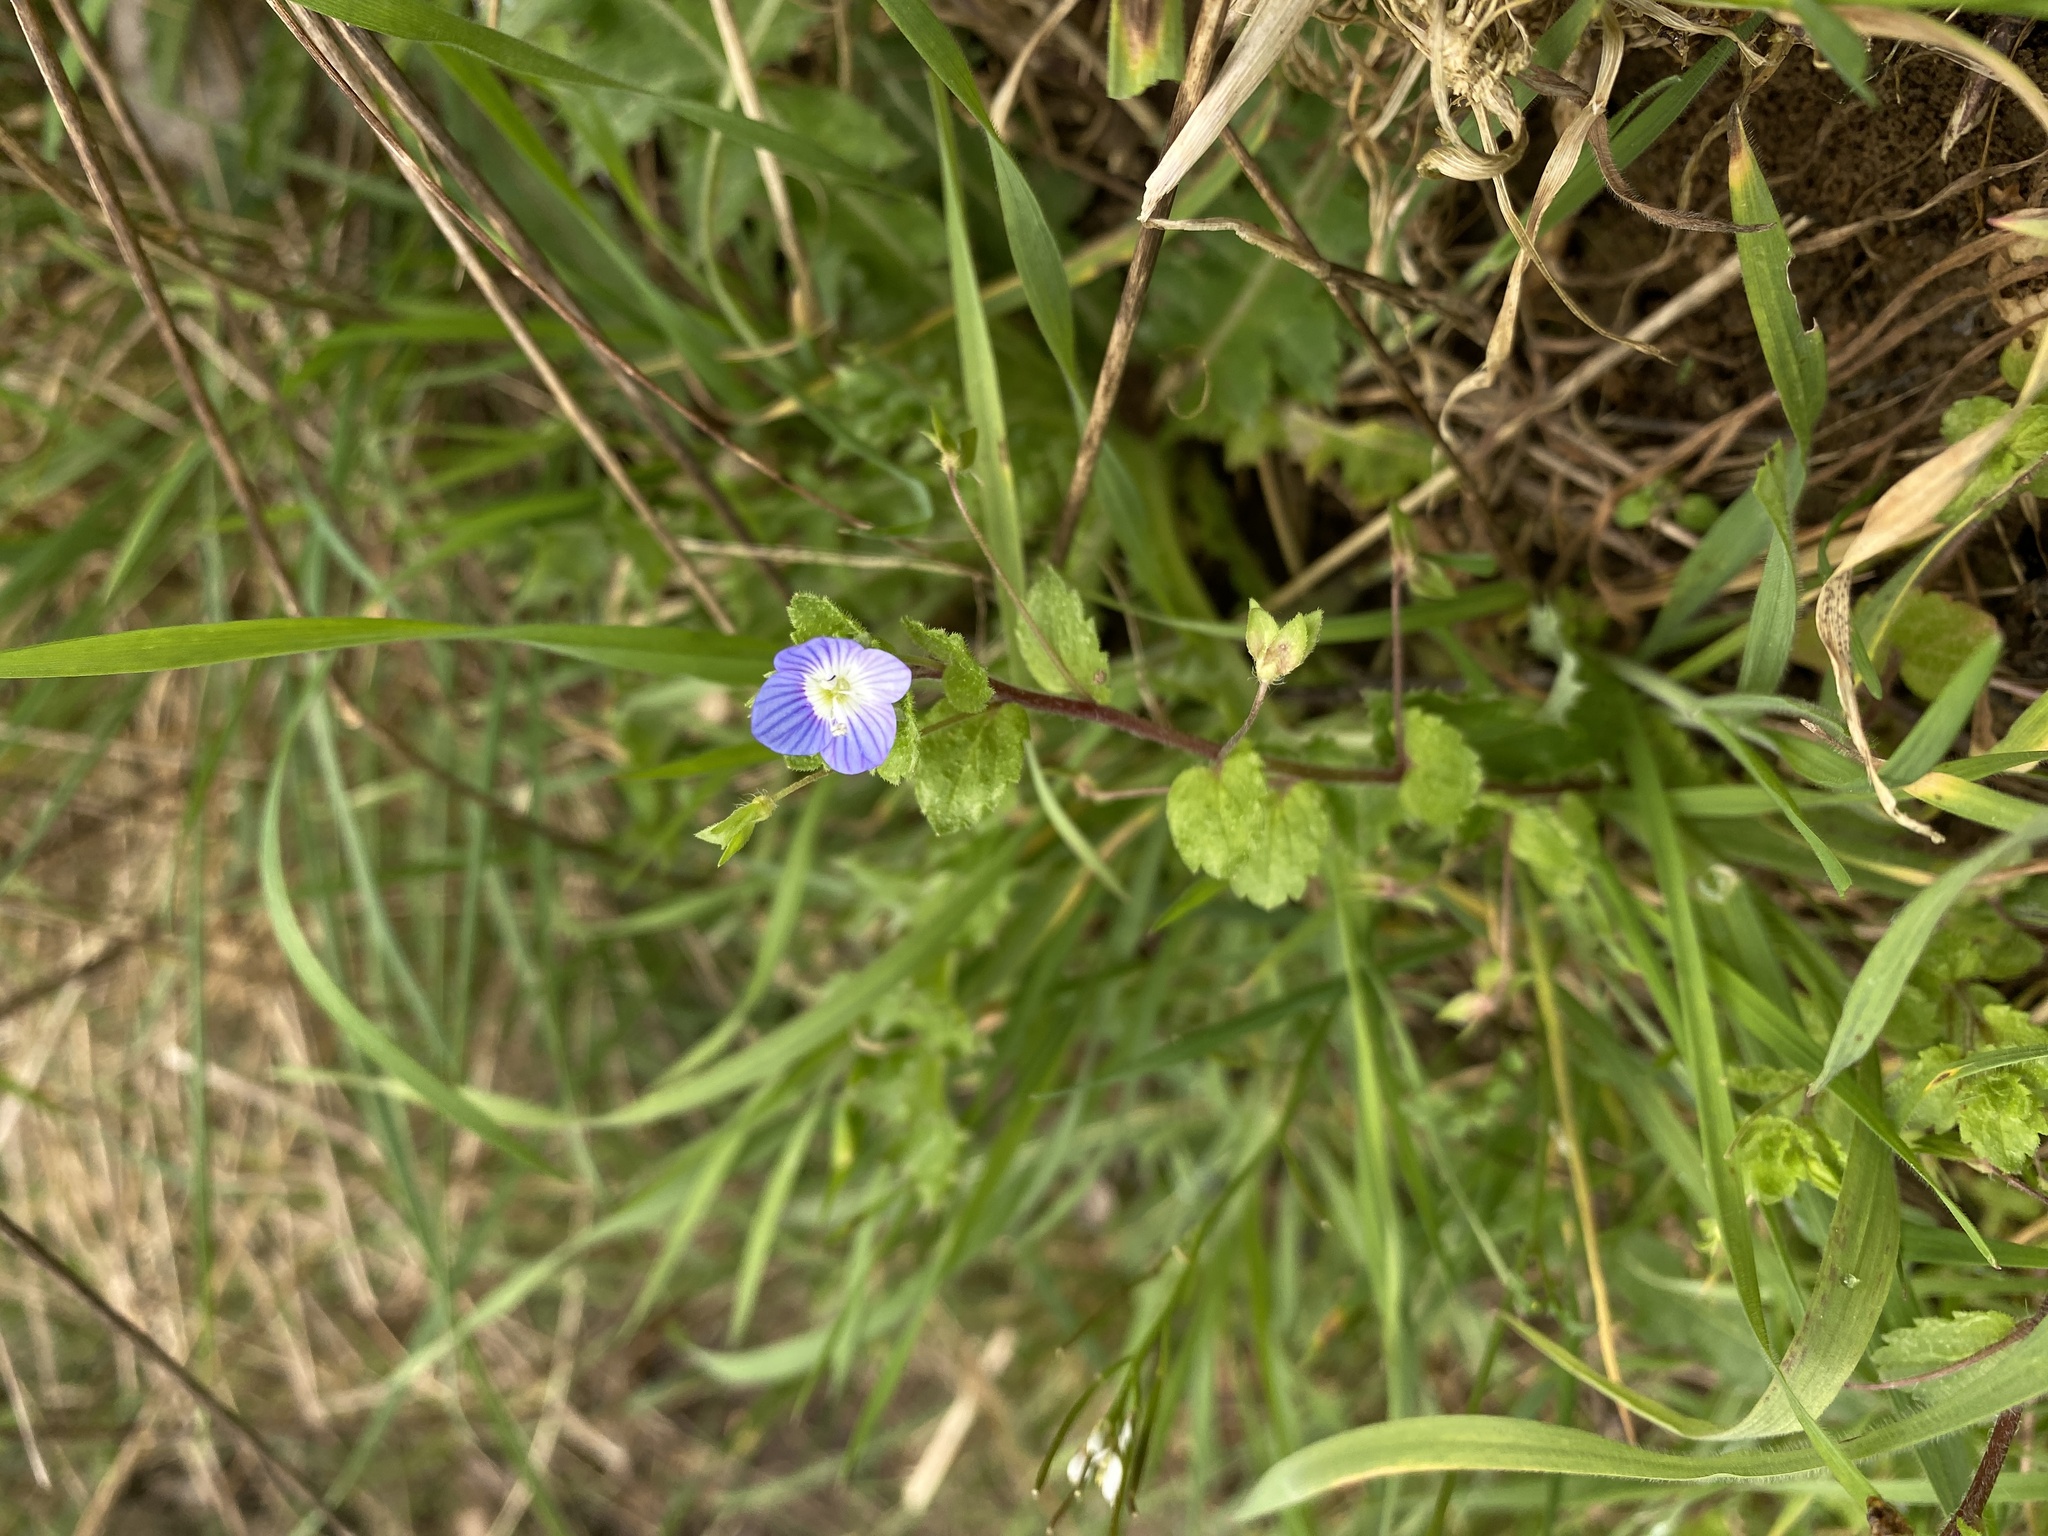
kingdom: Plantae
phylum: Tracheophyta
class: Magnoliopsida
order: Lamiales
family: Plantaginaceae
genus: Veronica
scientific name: Veronica persica
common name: Common field-speedwell
